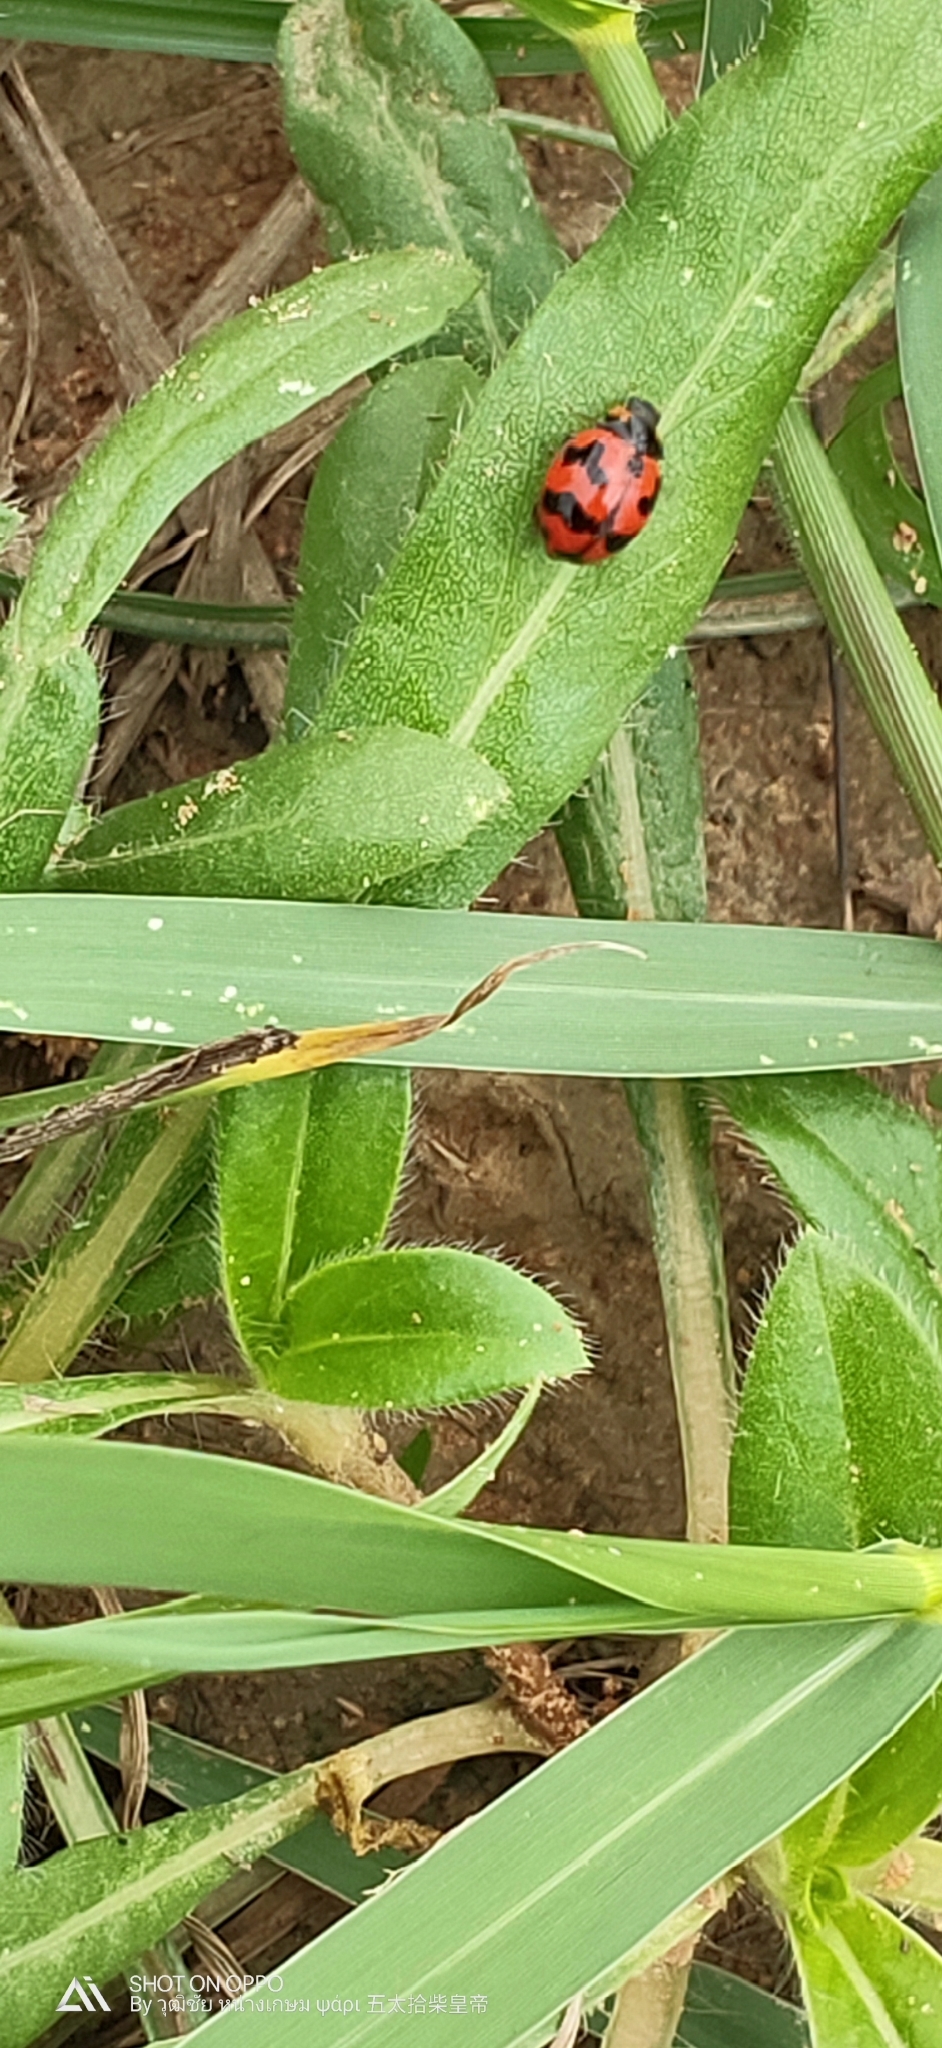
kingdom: Animalia
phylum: Arthropoda
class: Insecta
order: Coleoptera
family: Coccinellidae
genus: Coccinella
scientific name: Coccinella transversalis
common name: Transverse lady beetle
